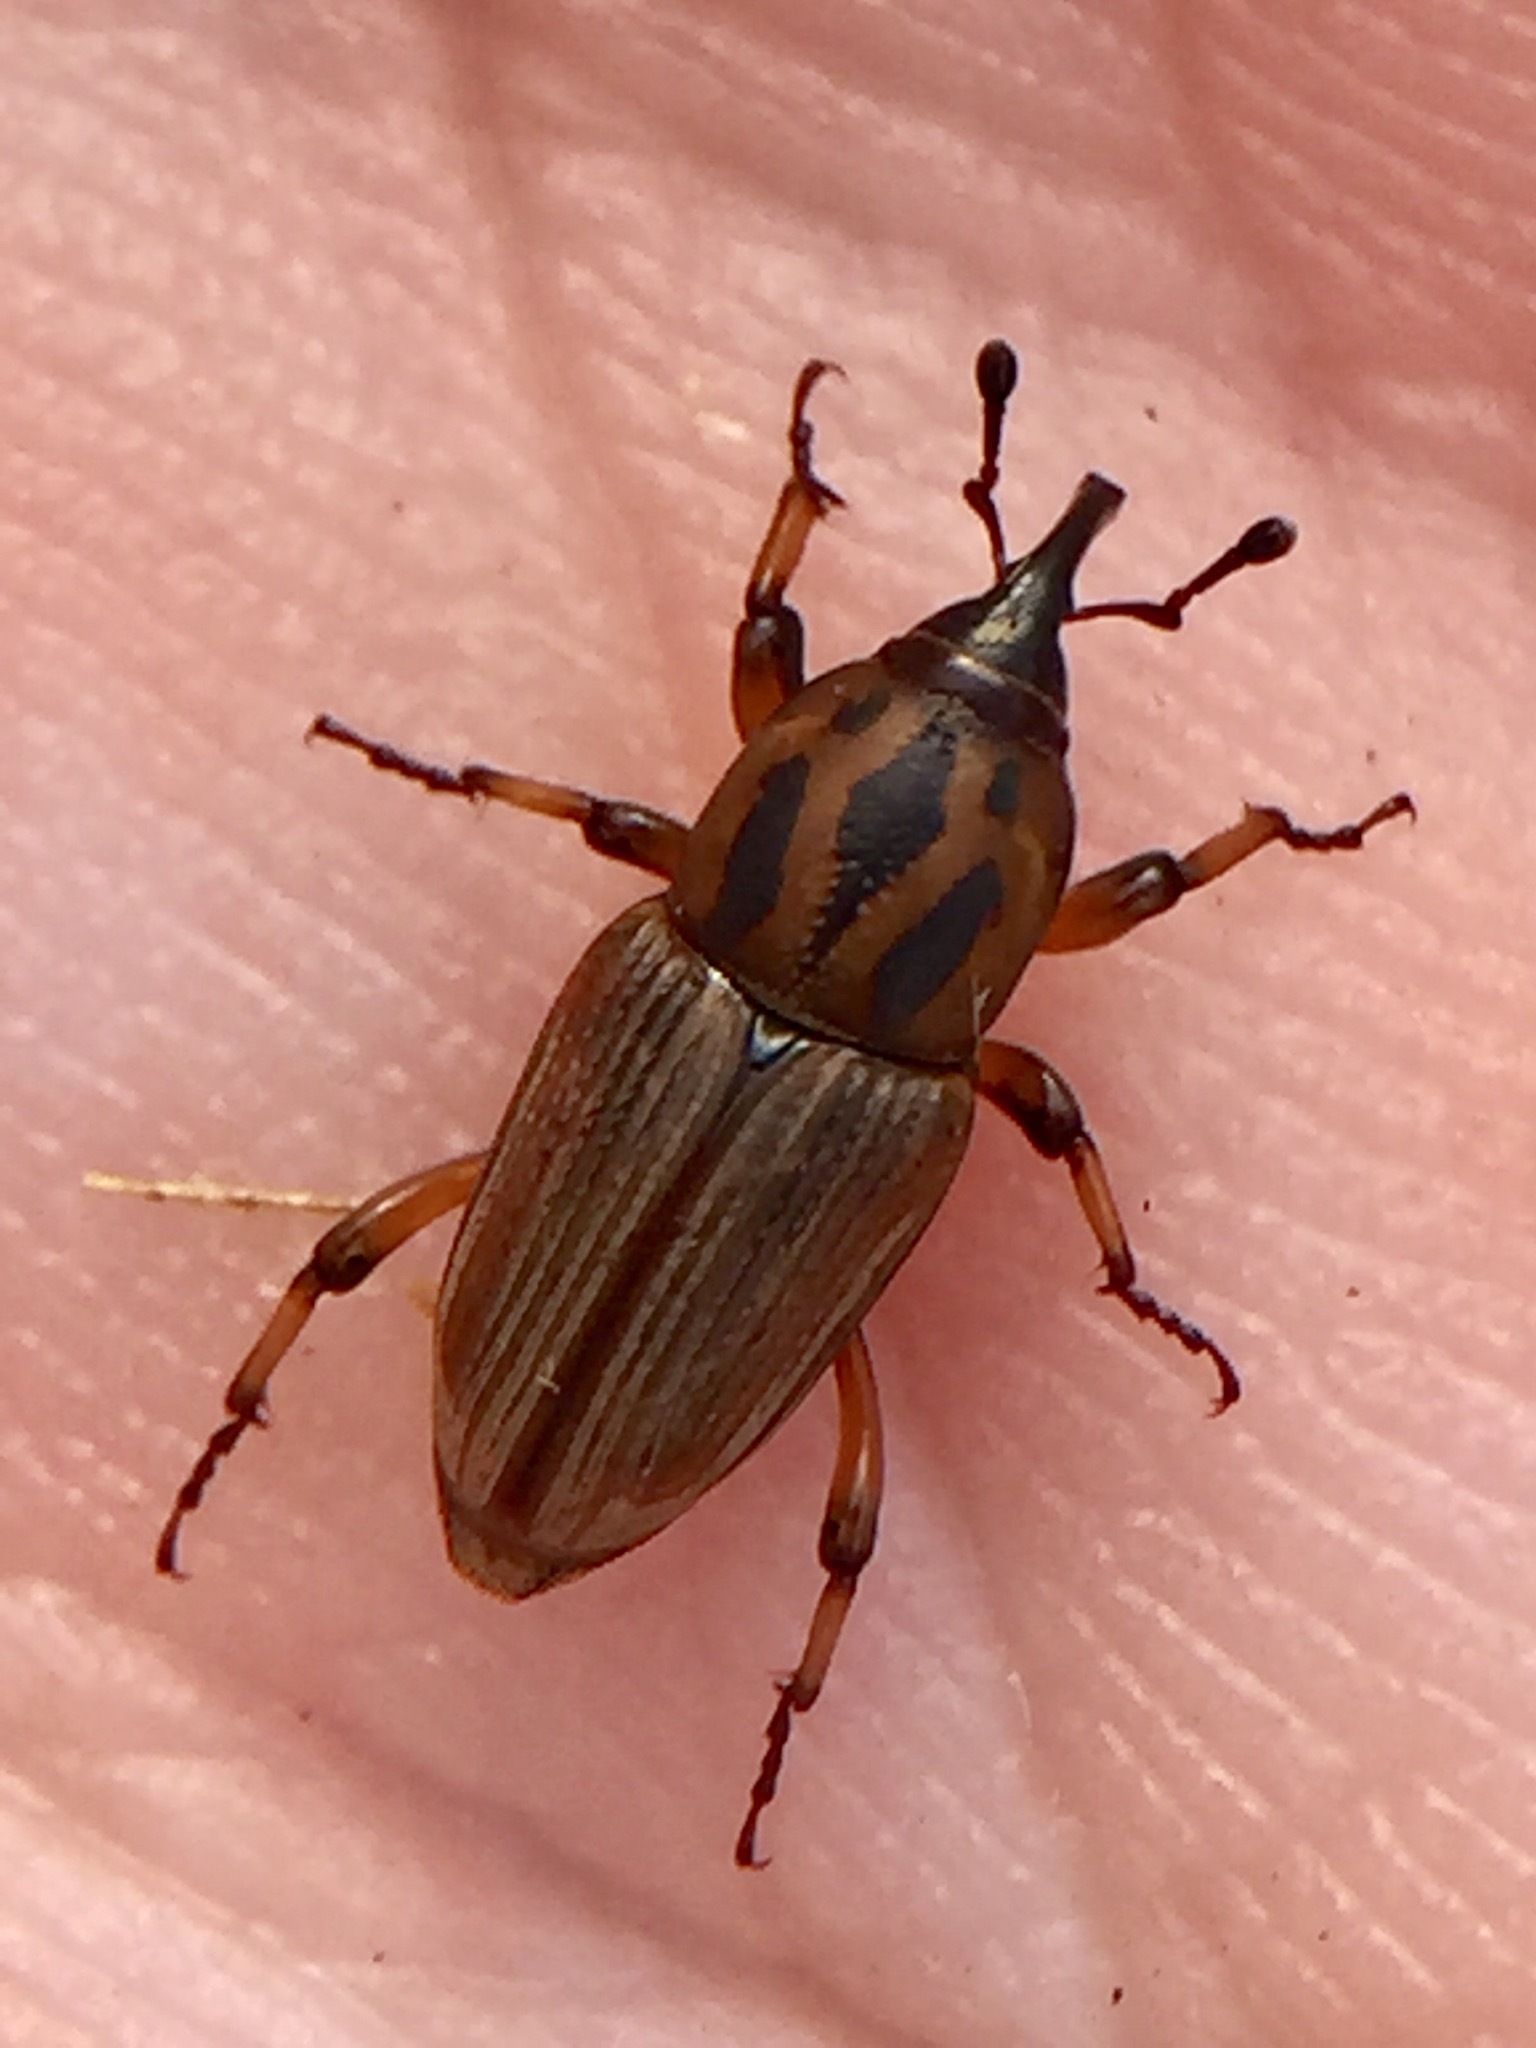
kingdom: Animalia
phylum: Arthropoda
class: Insecta
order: Coleoptera
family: Dryophthoridae
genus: Sphenophorus
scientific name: Sphenophorus brunnipennis
